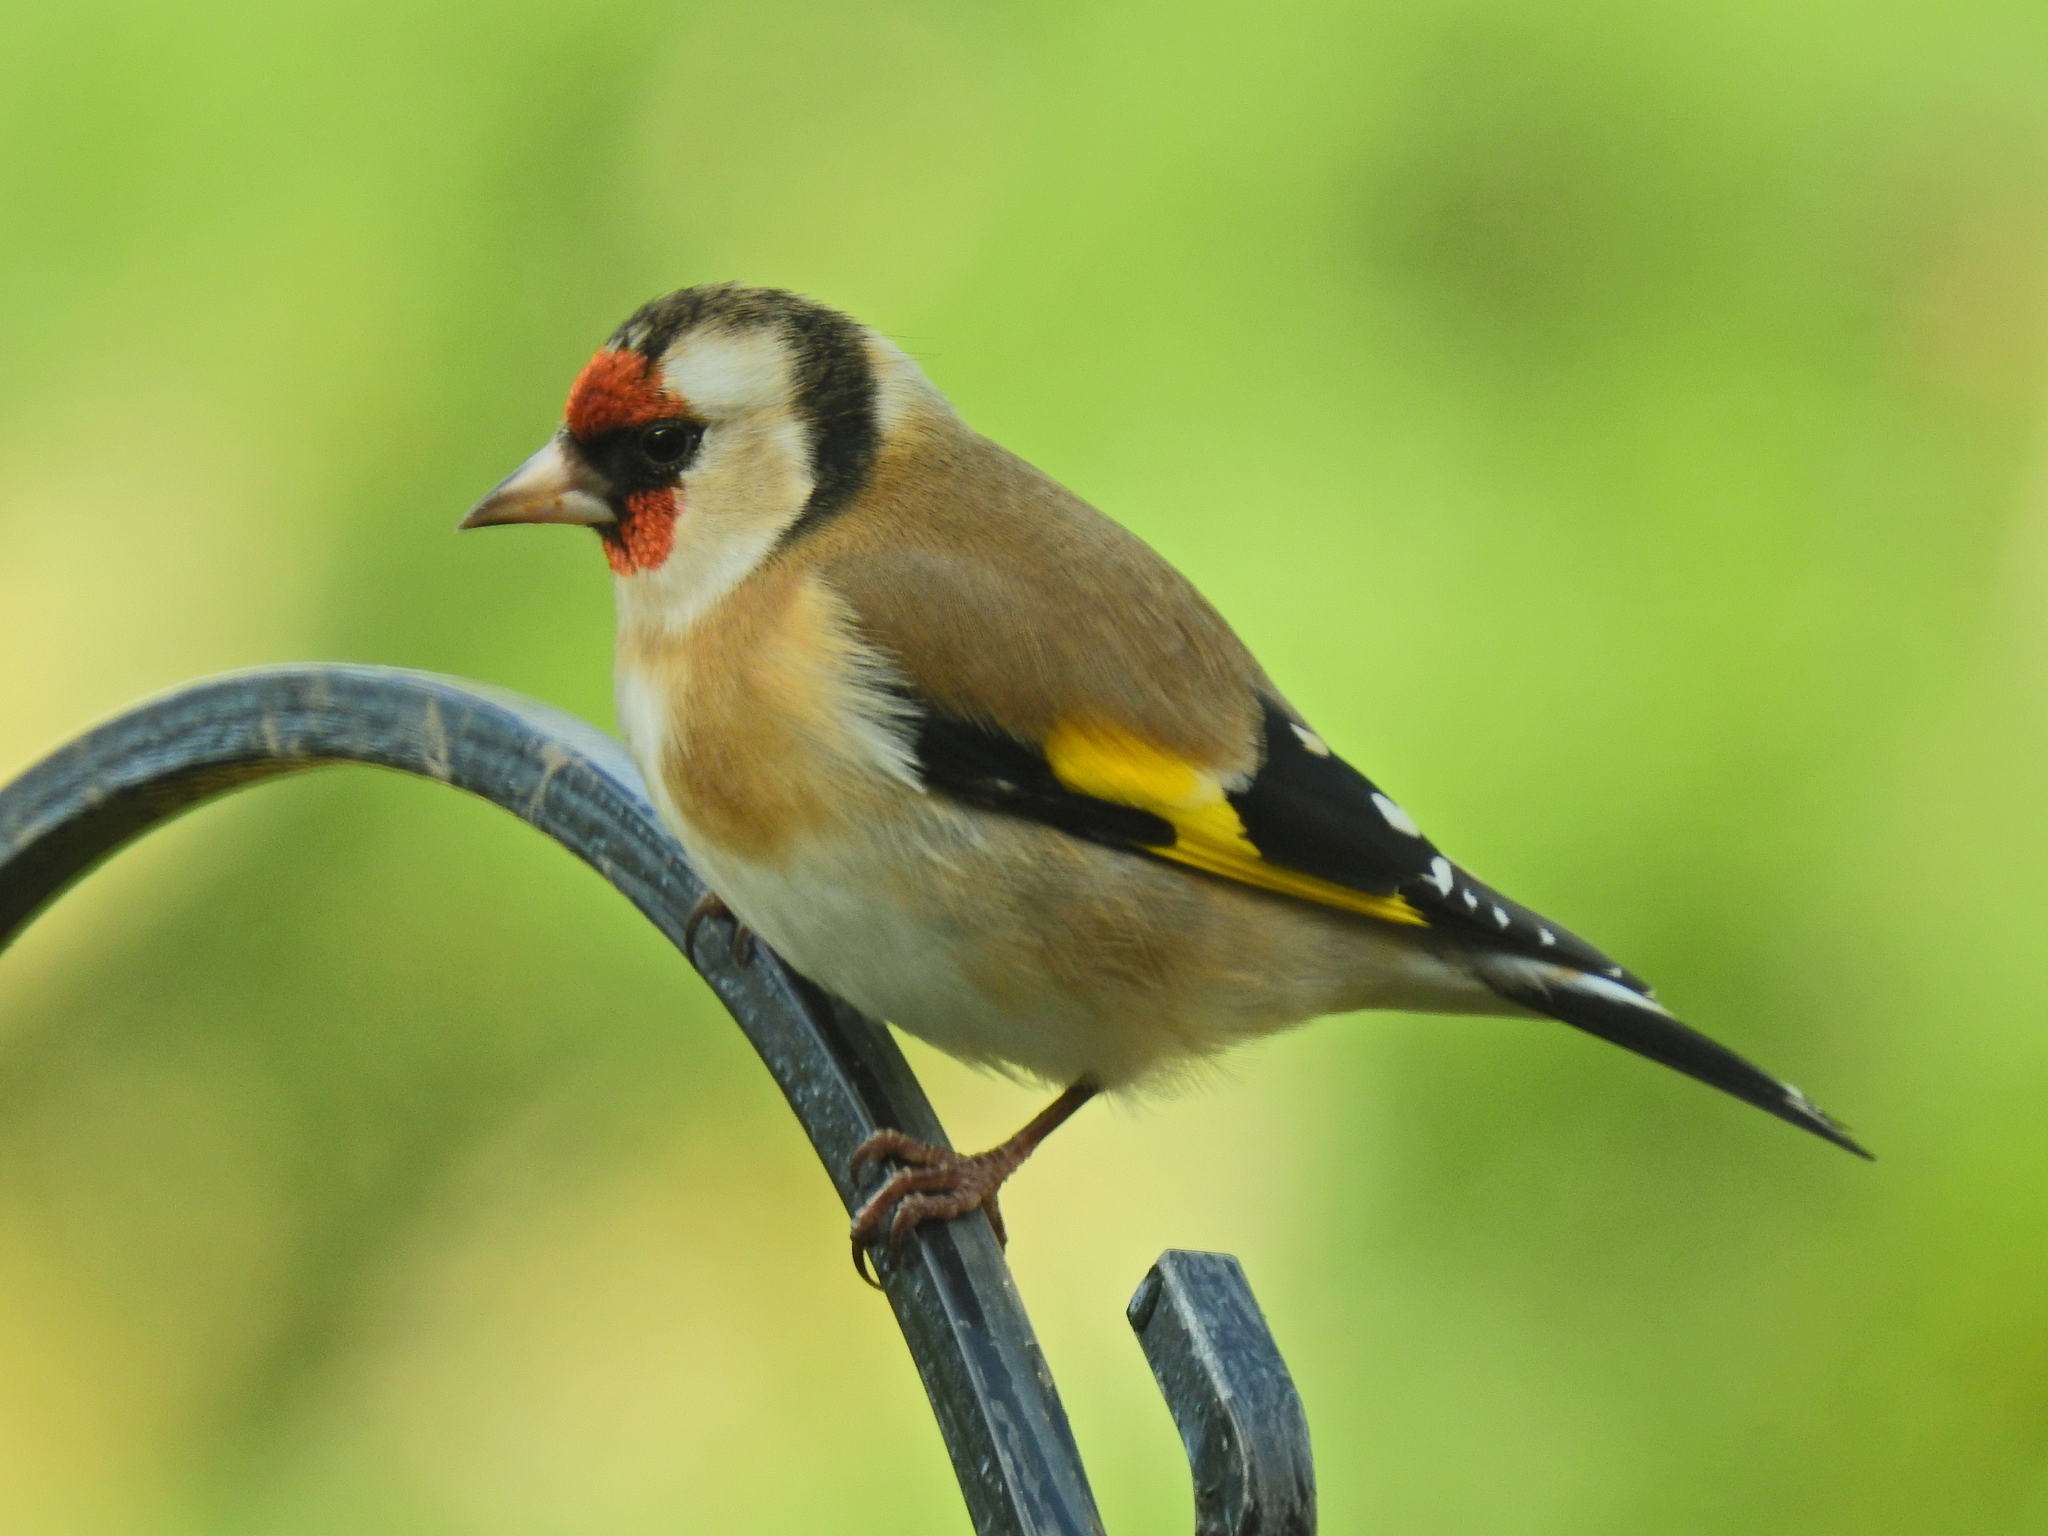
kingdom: Animalia
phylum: Chordata
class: Aves
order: Passeriformes
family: Fringillidae
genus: Carduelis
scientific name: Carduelis carduelis
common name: European goldfinch
